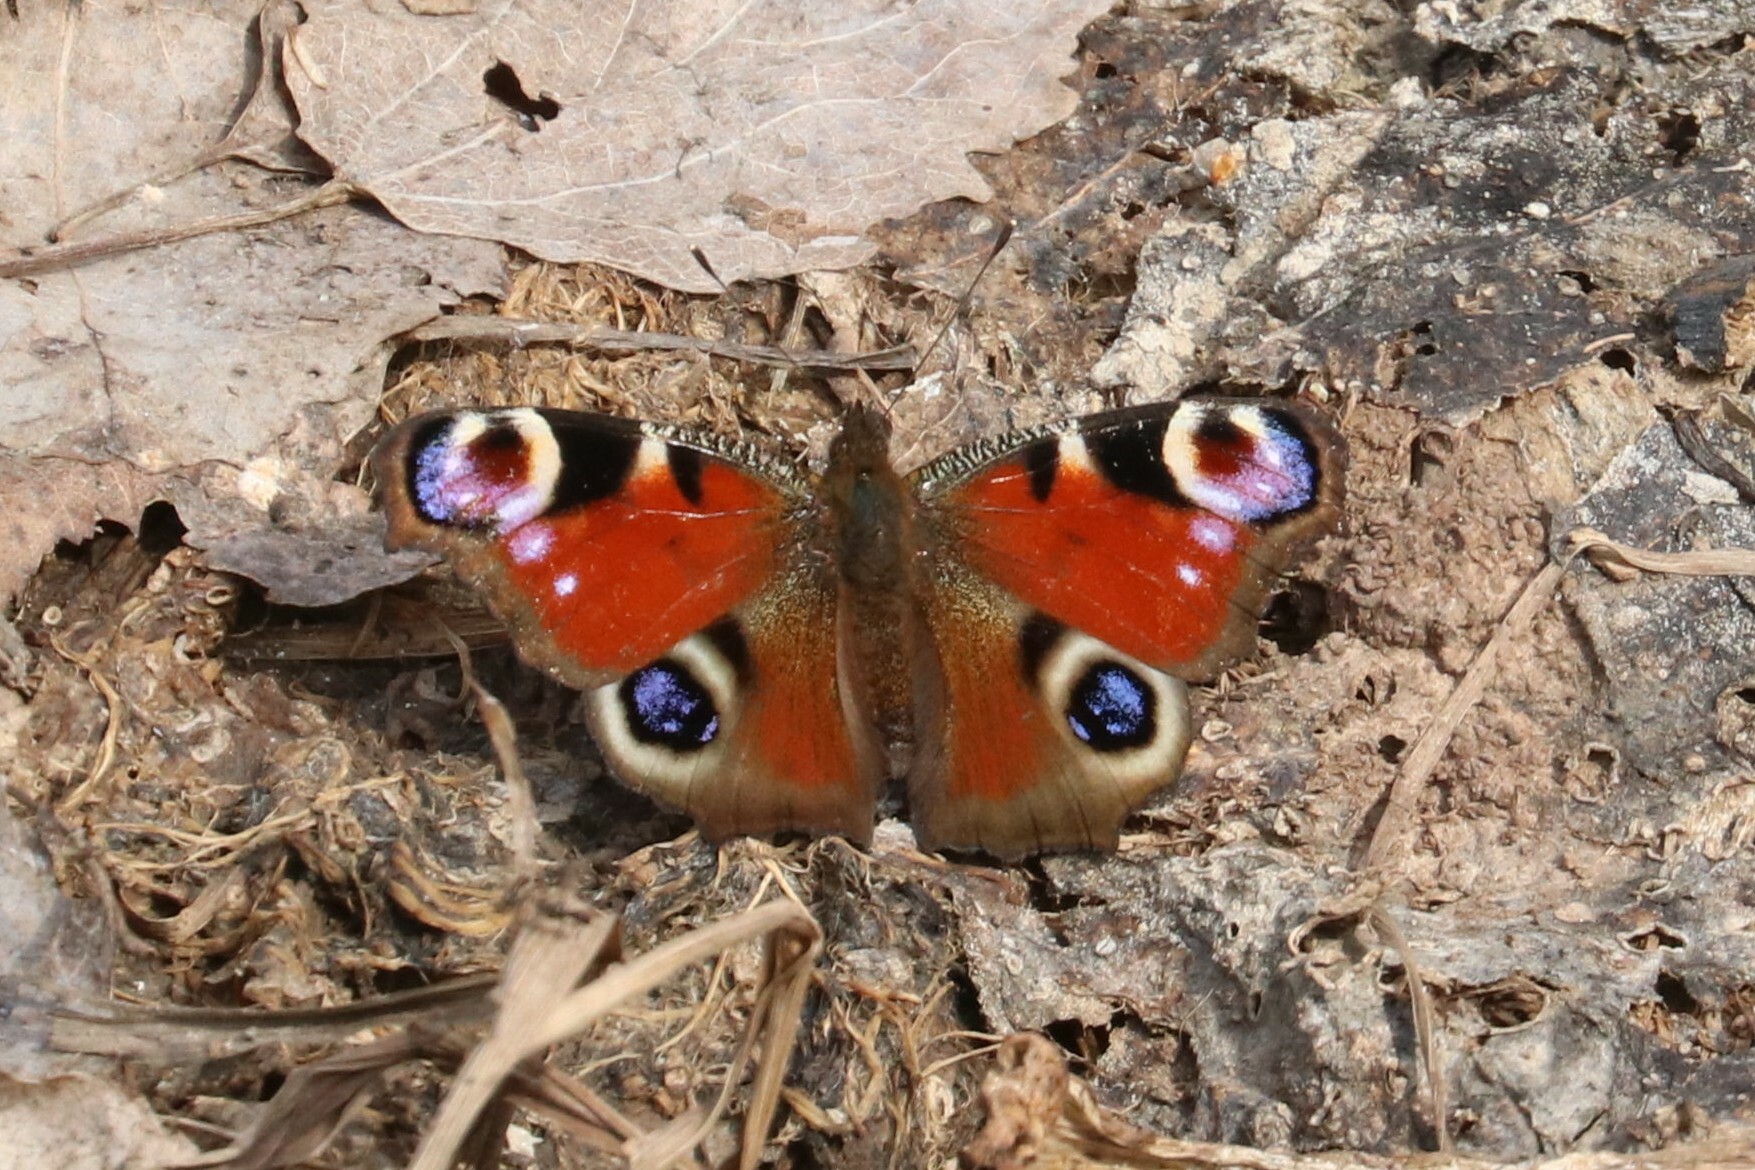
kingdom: Animalia
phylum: Arthropoda
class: Insecta
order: Lepidoptera
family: Nymphalidae
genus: Aglais
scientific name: Aglais io
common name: Peacock
